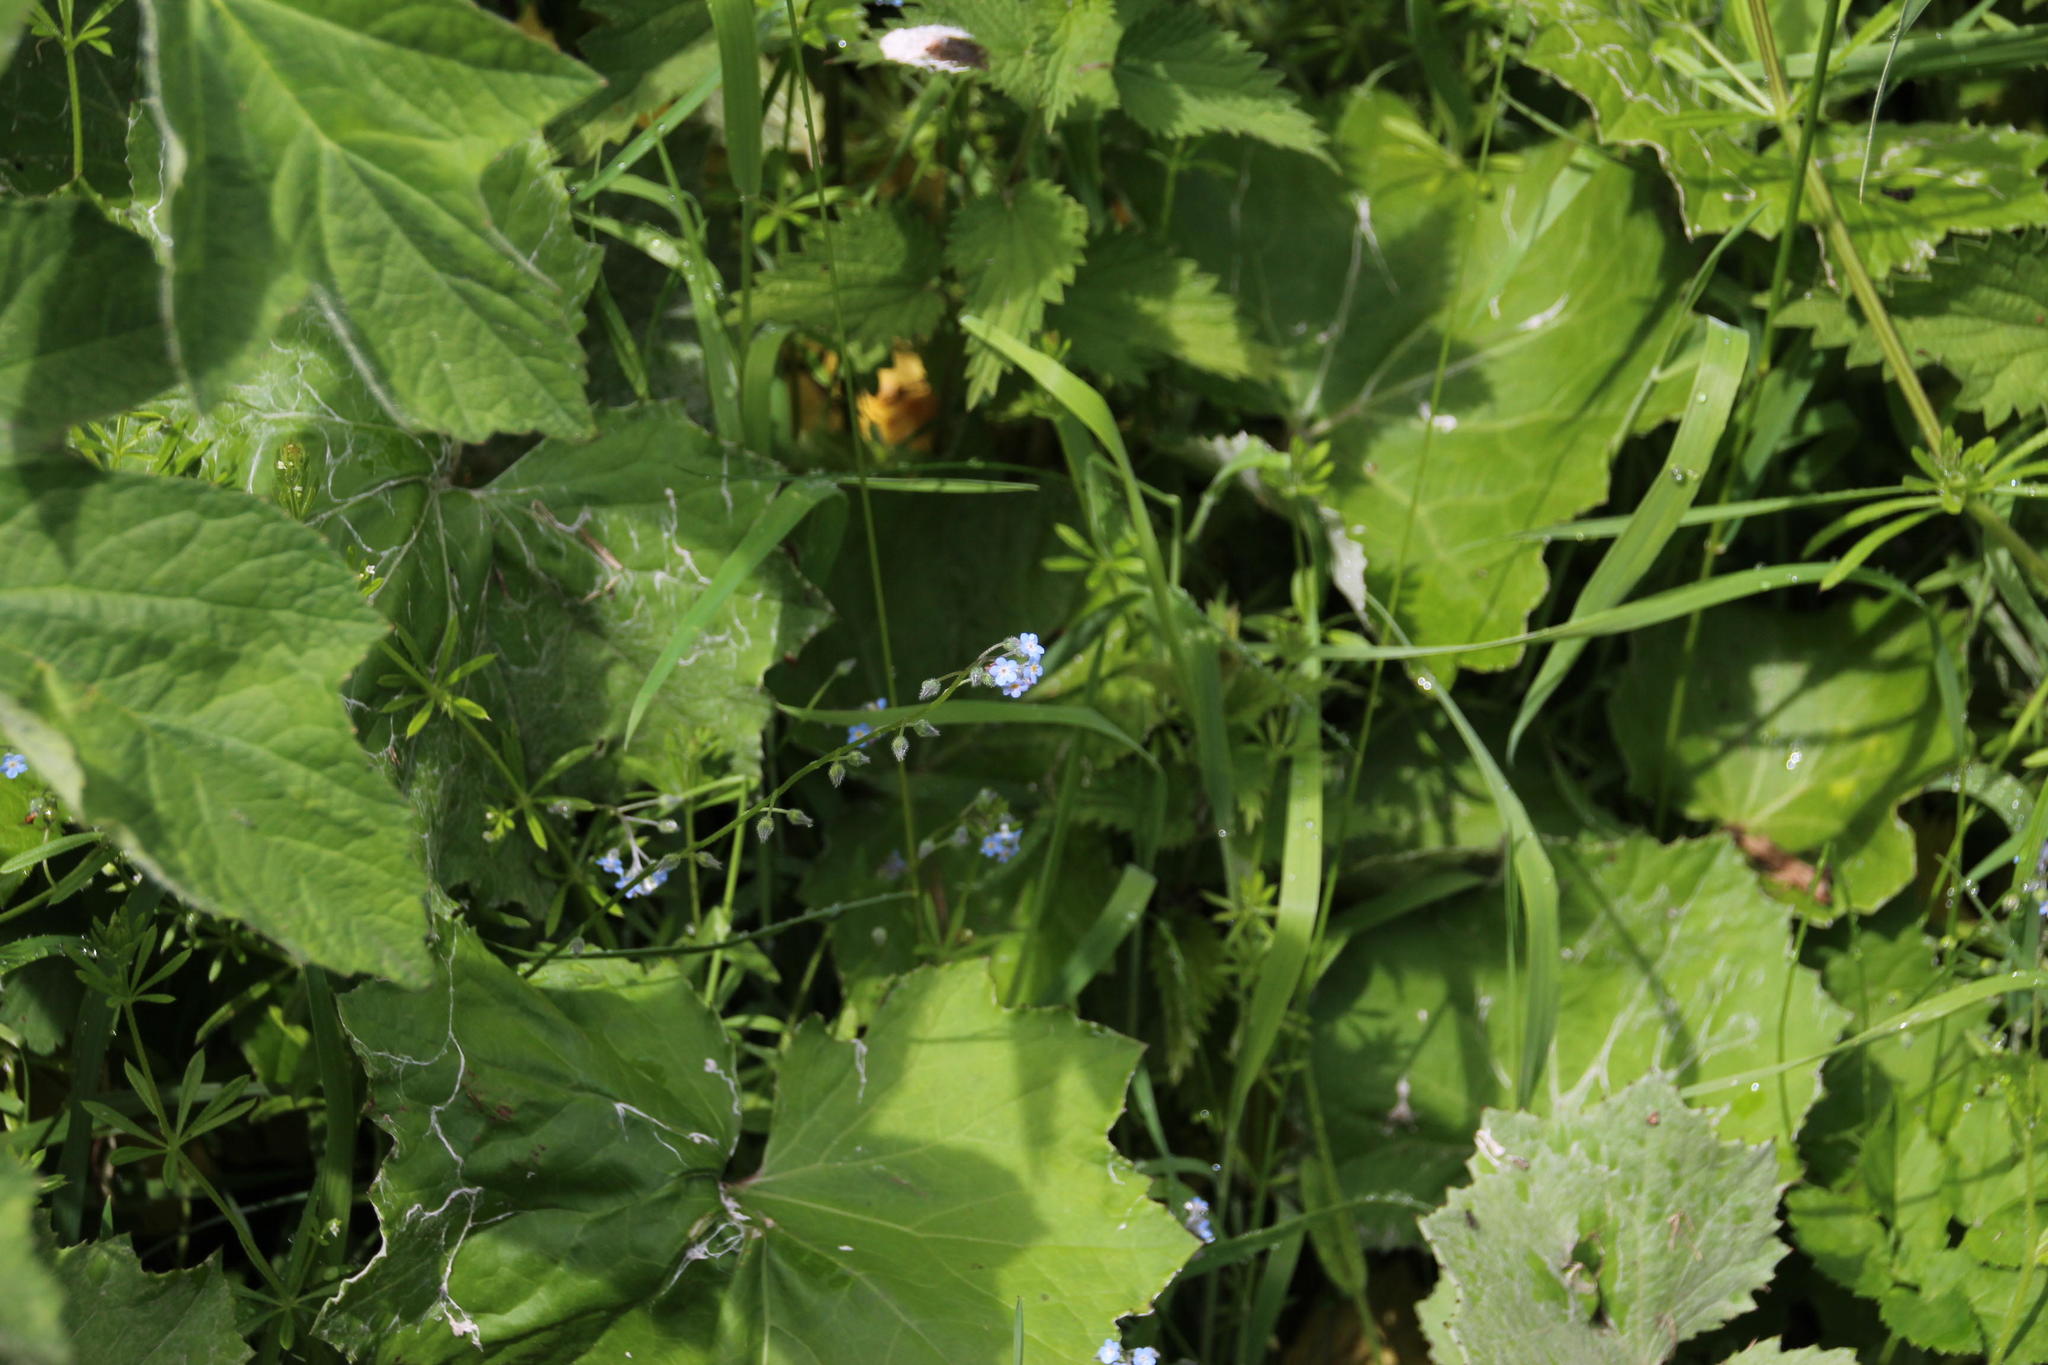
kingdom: Plantae
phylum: Tracheophyta
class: Magnoliopsida
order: Boraginales
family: Boraginaceae
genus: Myosotis
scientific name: Myosotis arvensis
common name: Field forget-me-not
